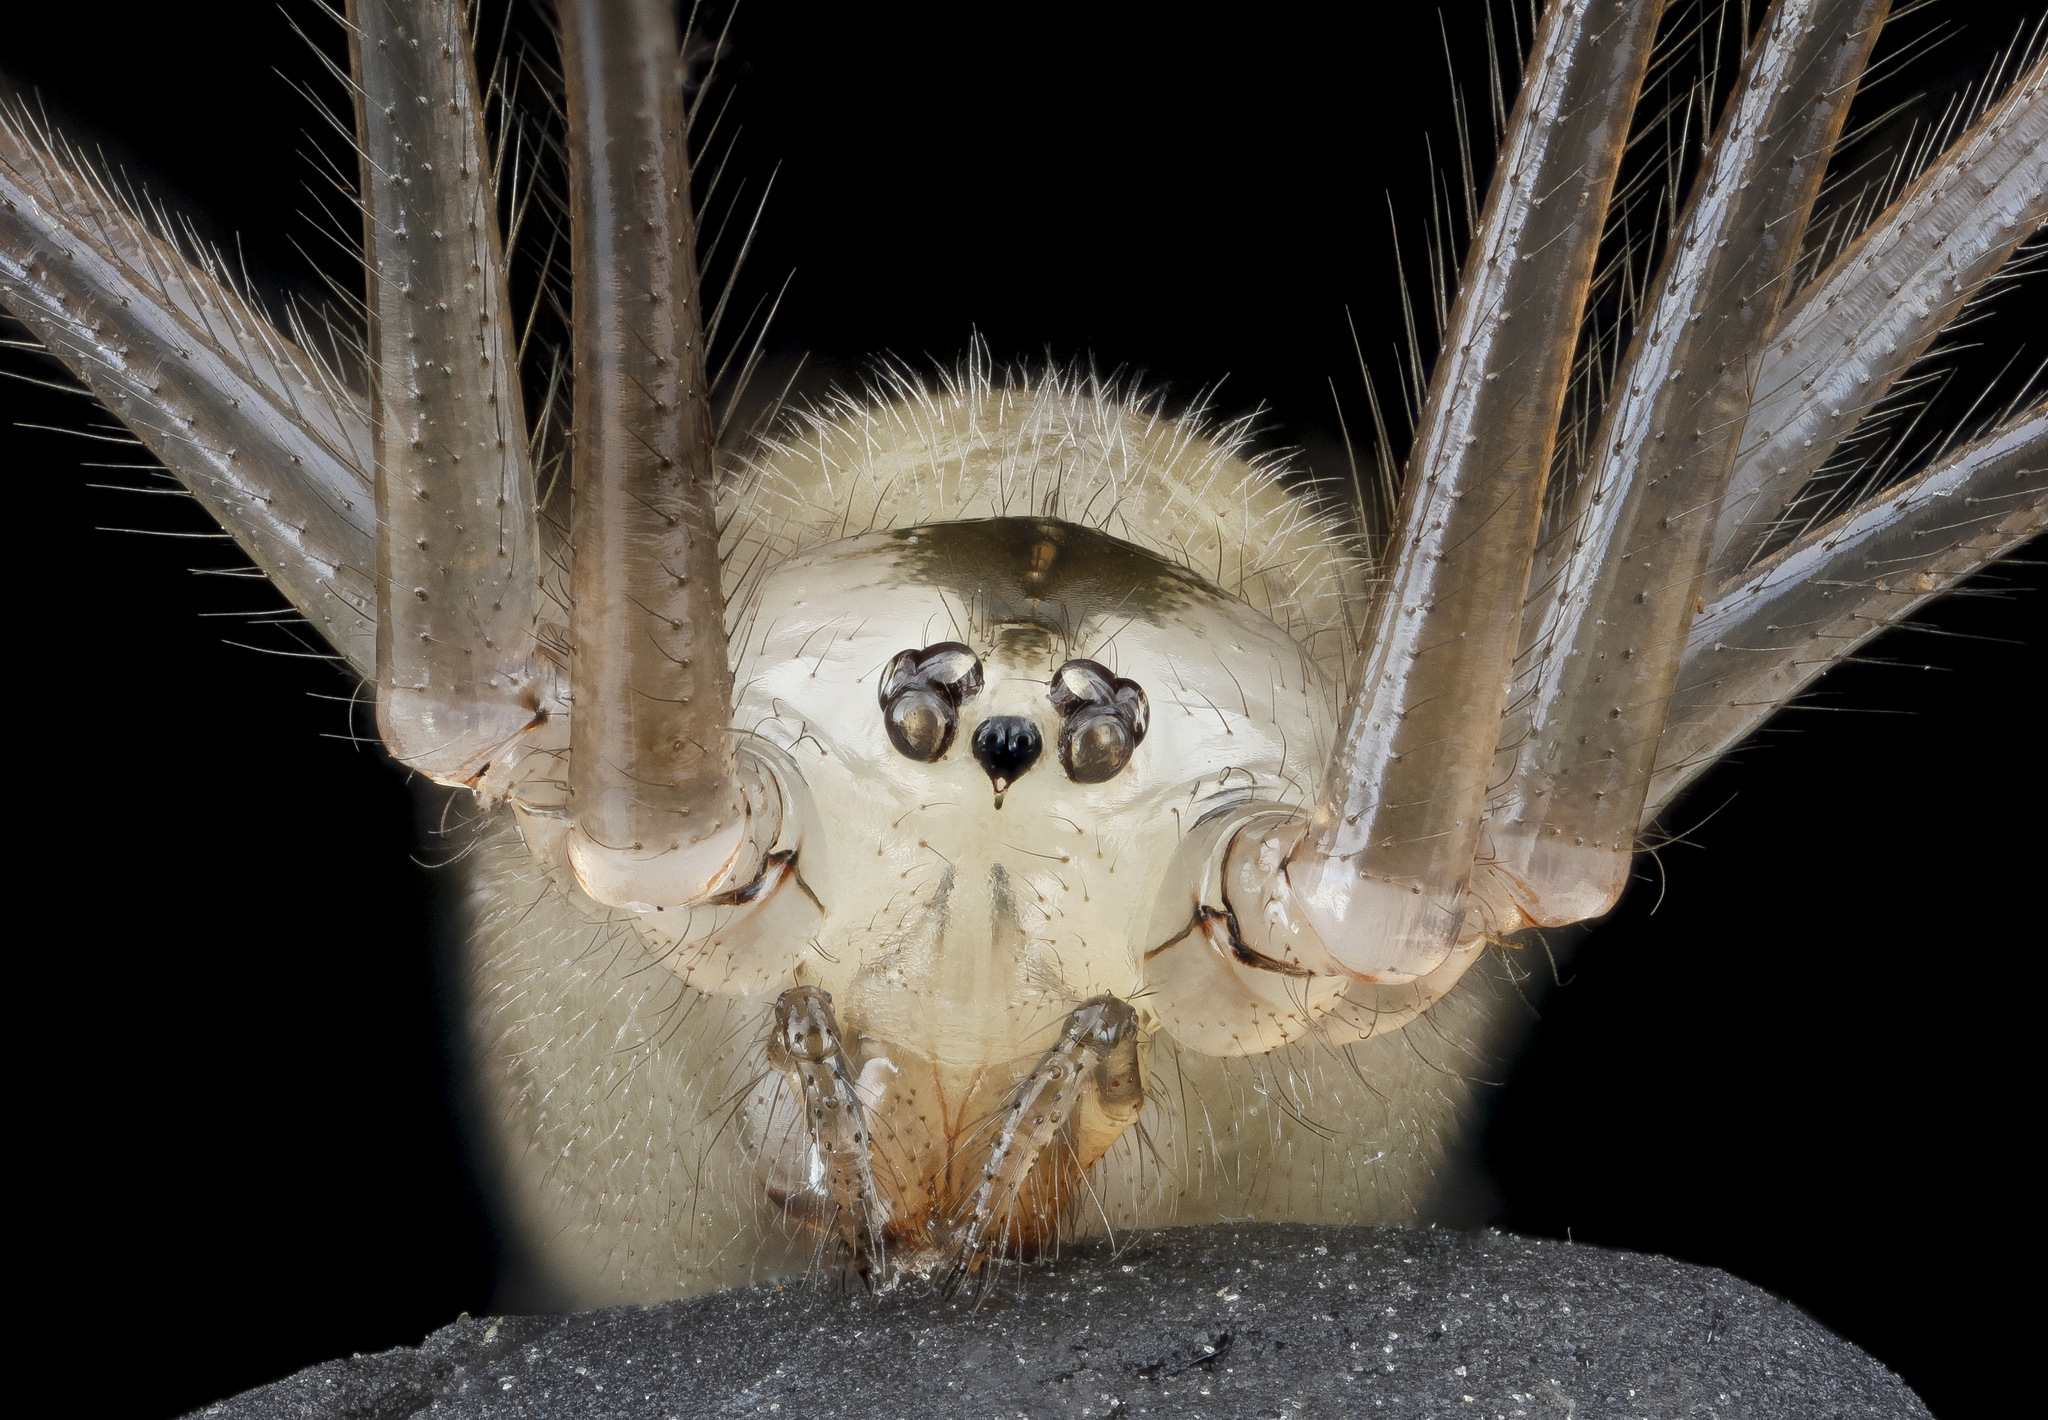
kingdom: Animalia
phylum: Arthropoda
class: Arachnida
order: Araneae
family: Pholcidae
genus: Pholcus
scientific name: Pholcus phalangioides
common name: Longbodied cellar spider
